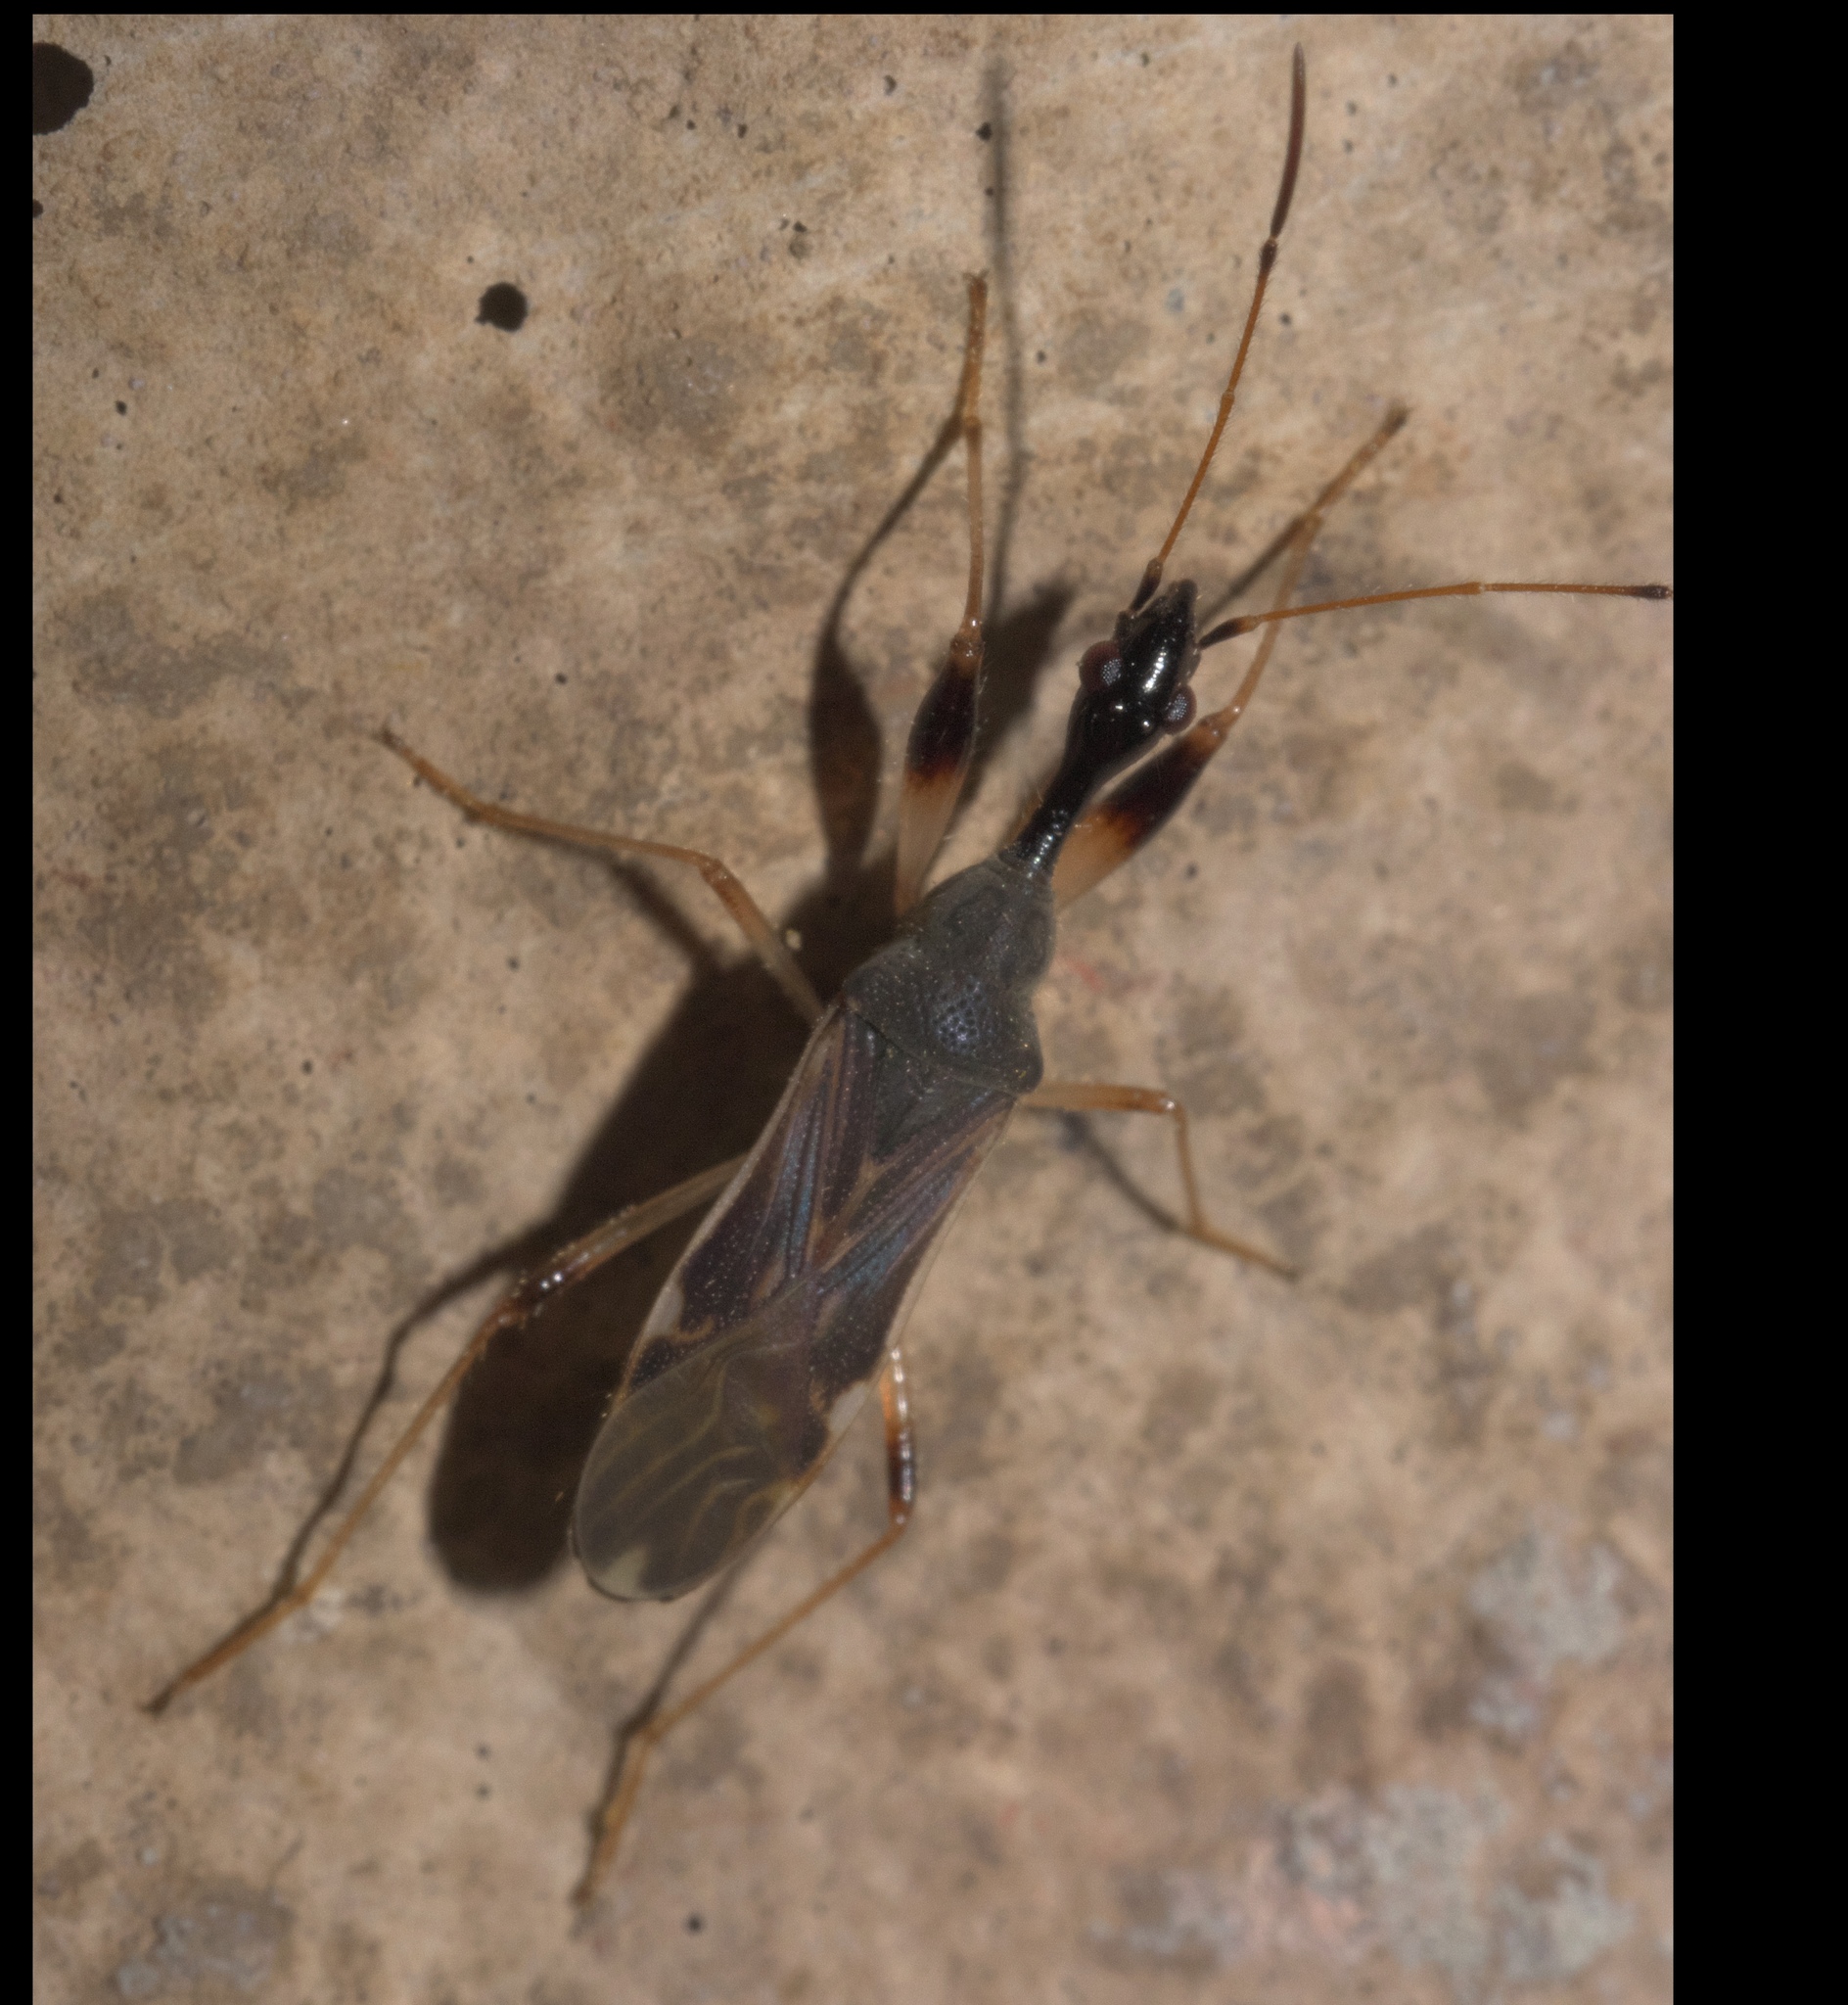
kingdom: Animalia
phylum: Arthropoda
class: Insecta
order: Hemiptera
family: Rhyparochromidae
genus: Myodocha
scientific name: Myodocha serripes
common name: Long-necked seed bug
